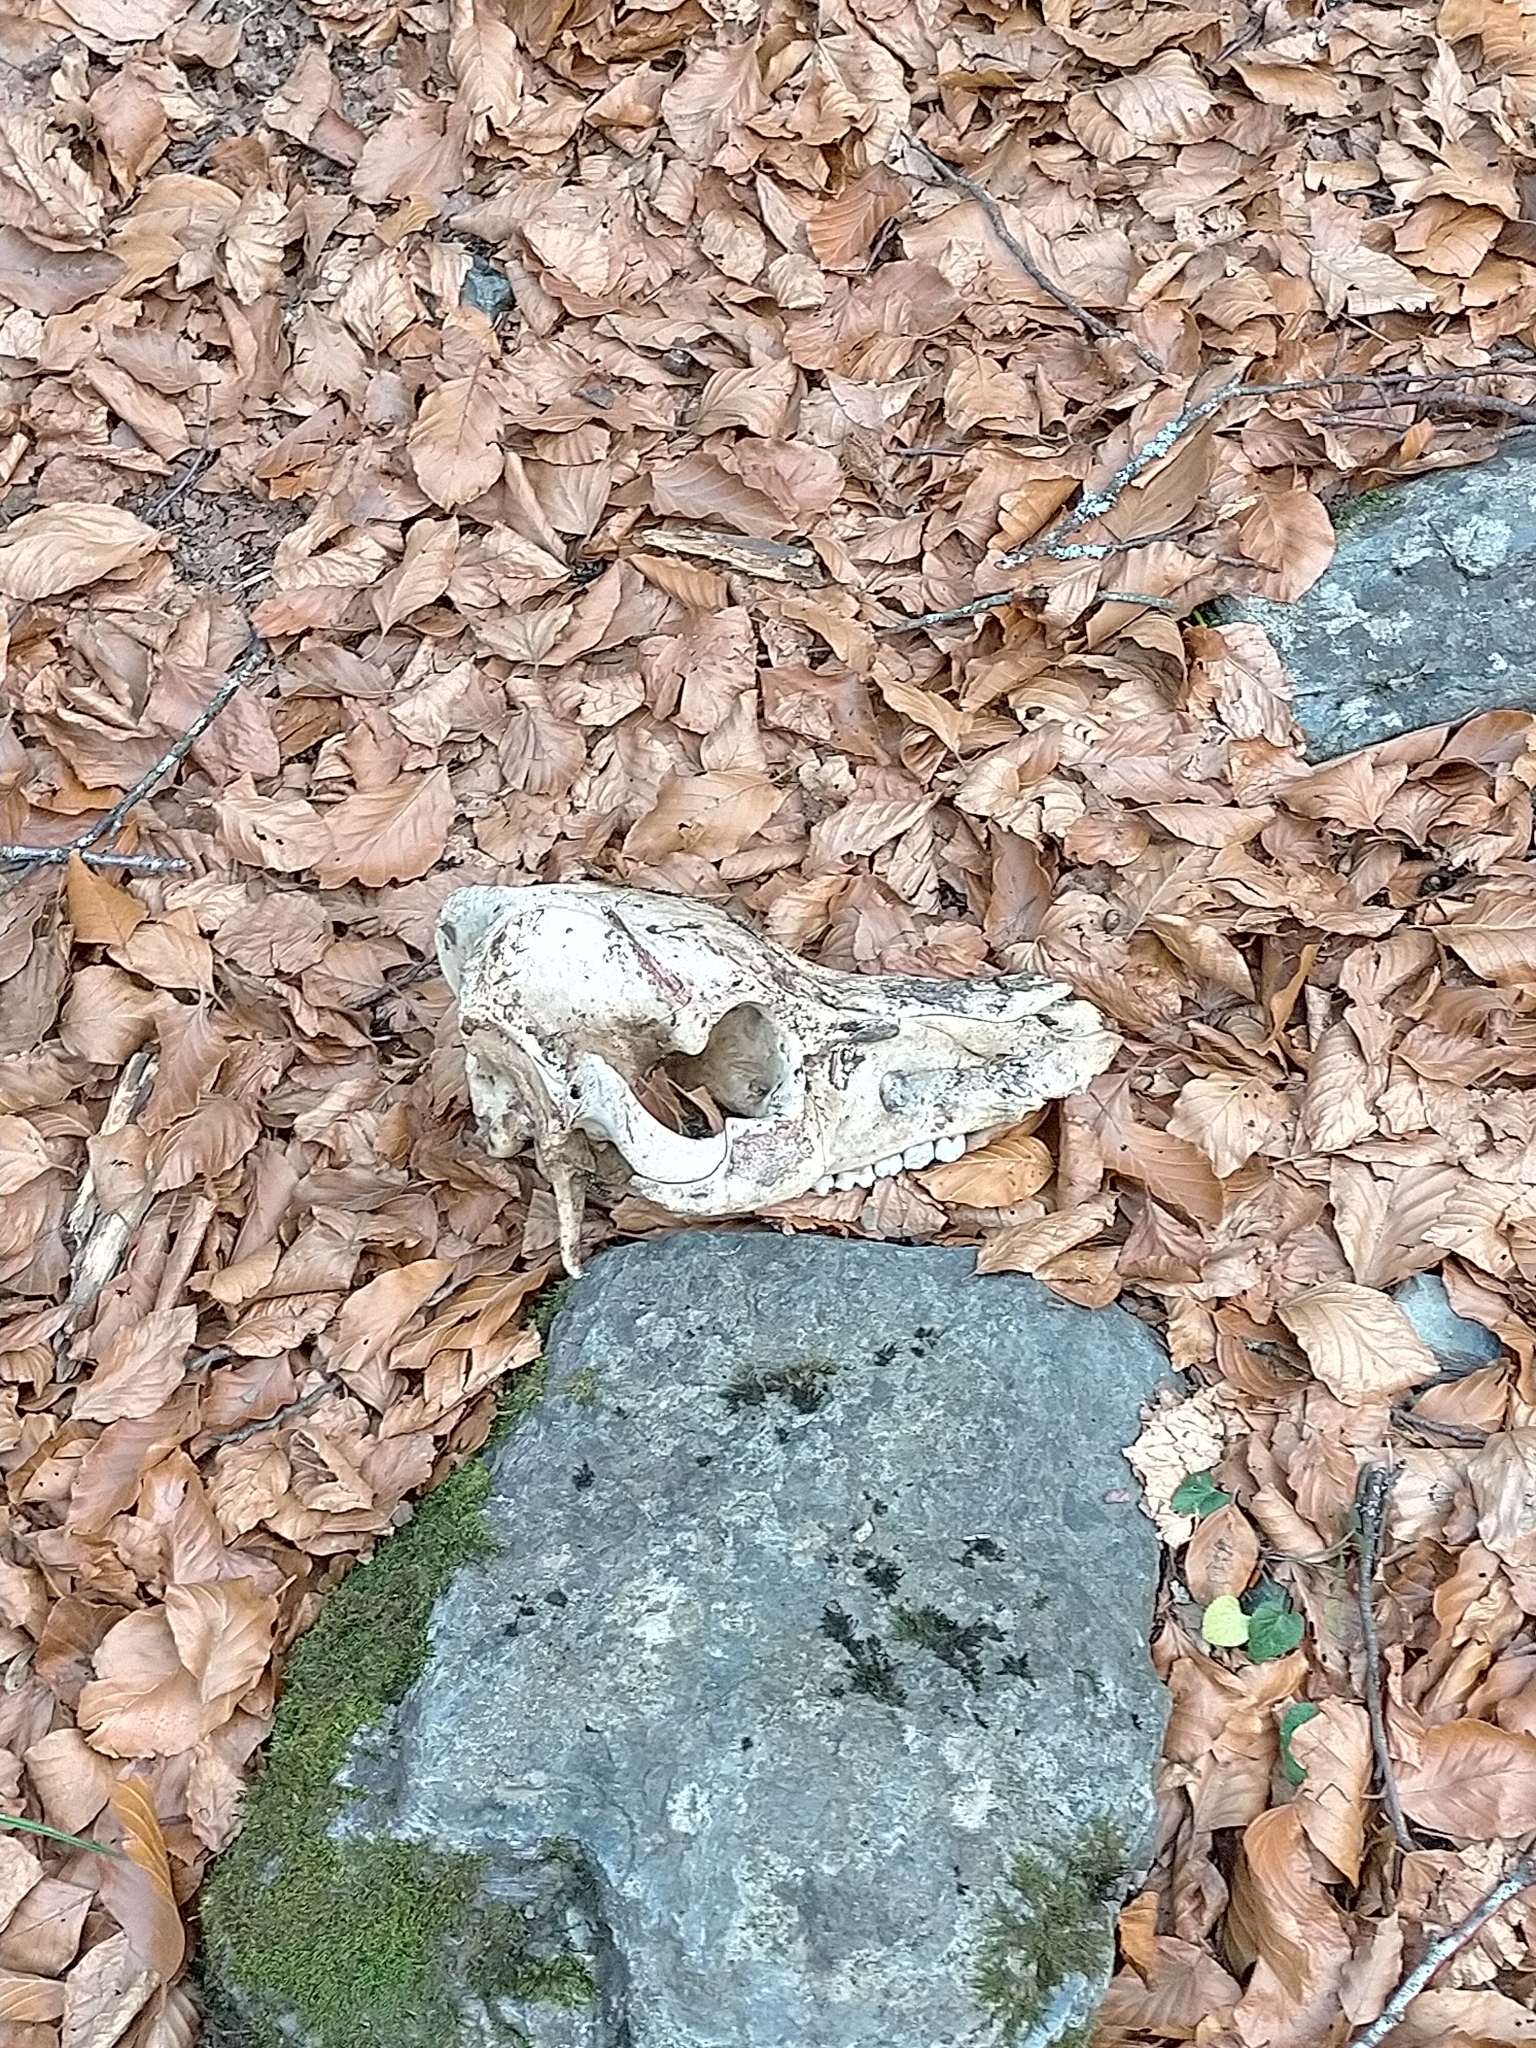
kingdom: Animalia
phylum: Chordata
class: Mammalia
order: Artiodactyla
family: Suidae
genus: Sus
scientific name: Sus scrofa
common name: Wild boar
